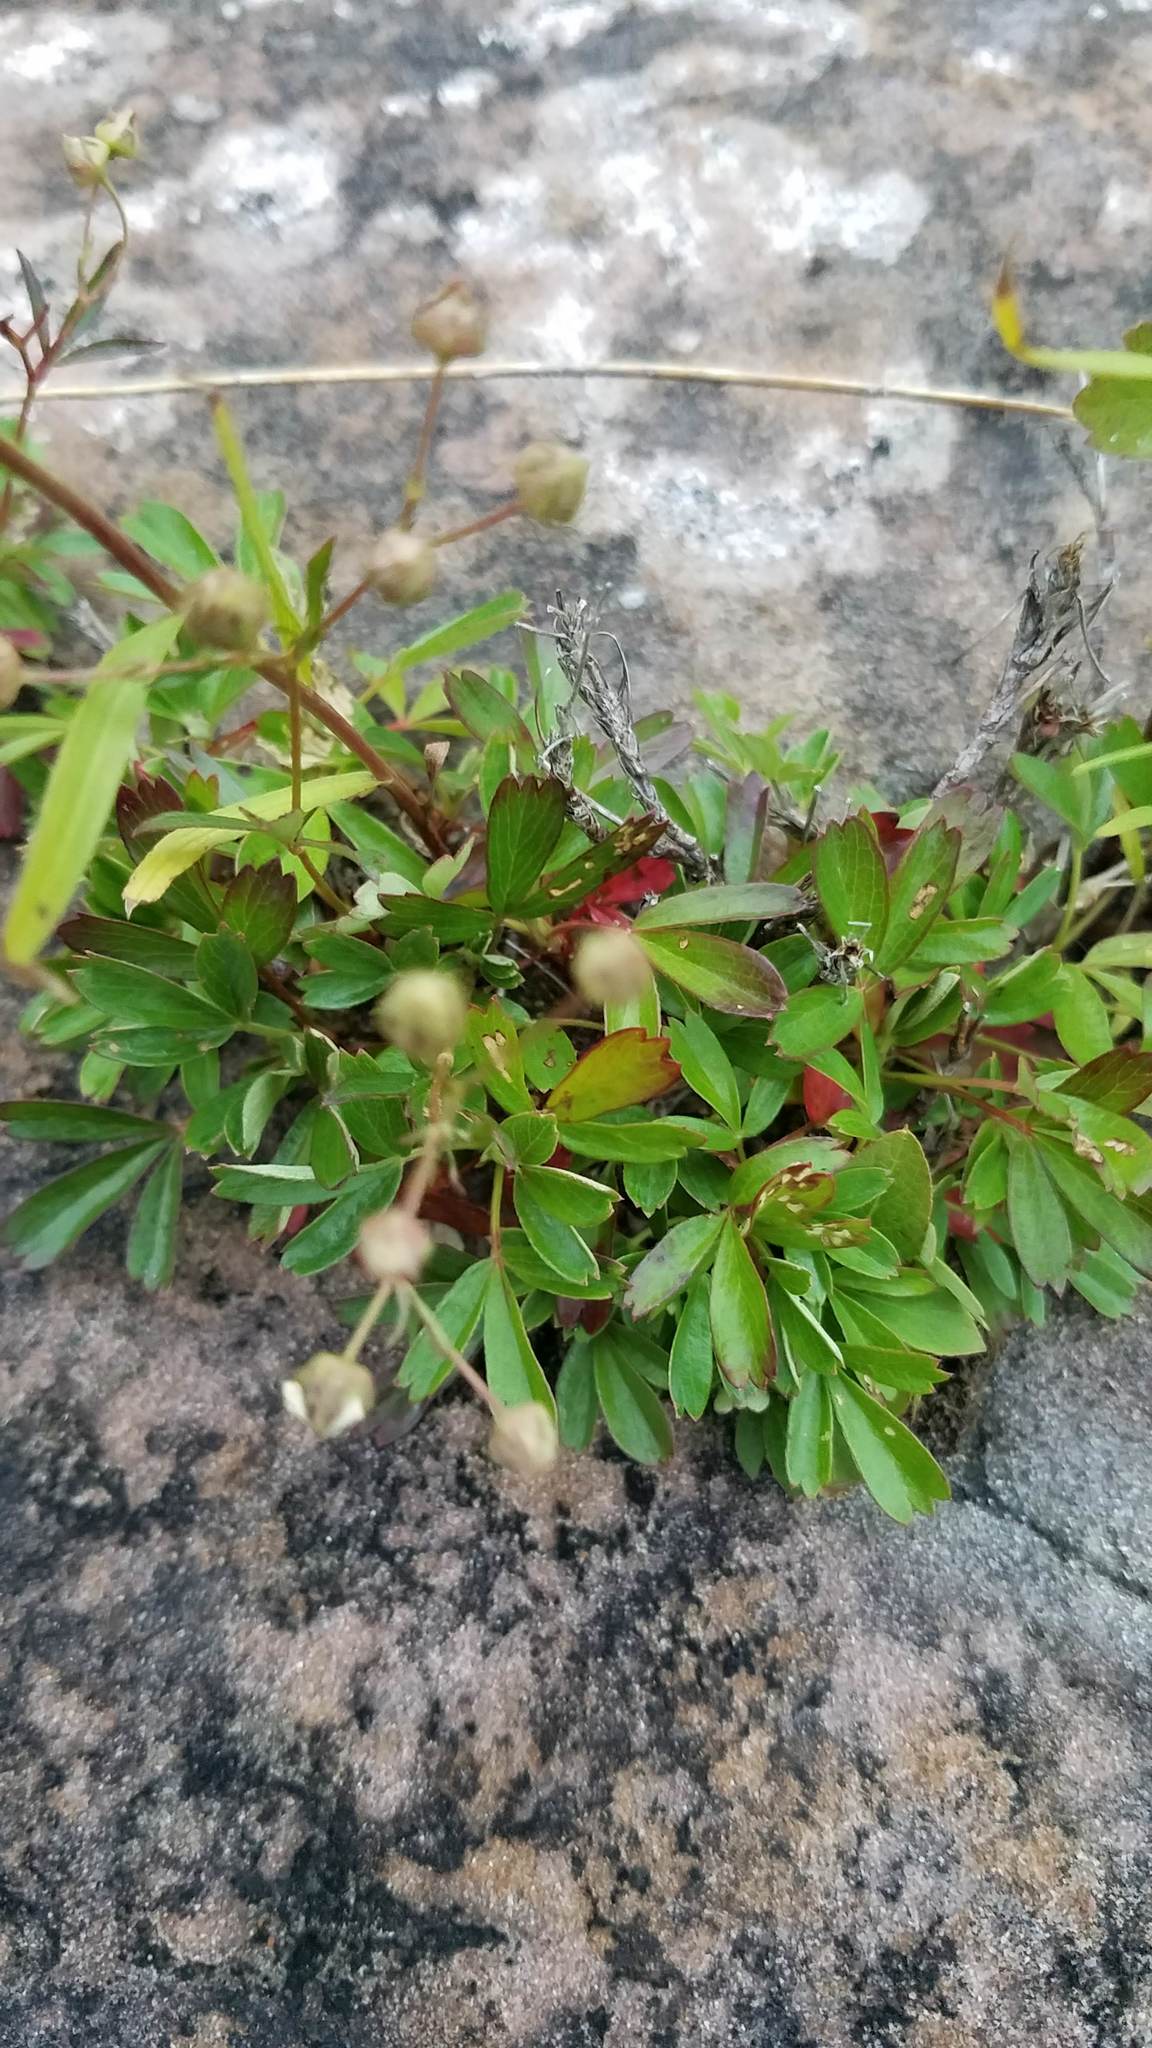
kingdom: Plantae
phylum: Tracheophyta
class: Magnoliopsida
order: Rosales
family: Rosaceae
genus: Sibbaldia
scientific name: Sibbaldia tridentata
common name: Three-toothed cinquefoil
